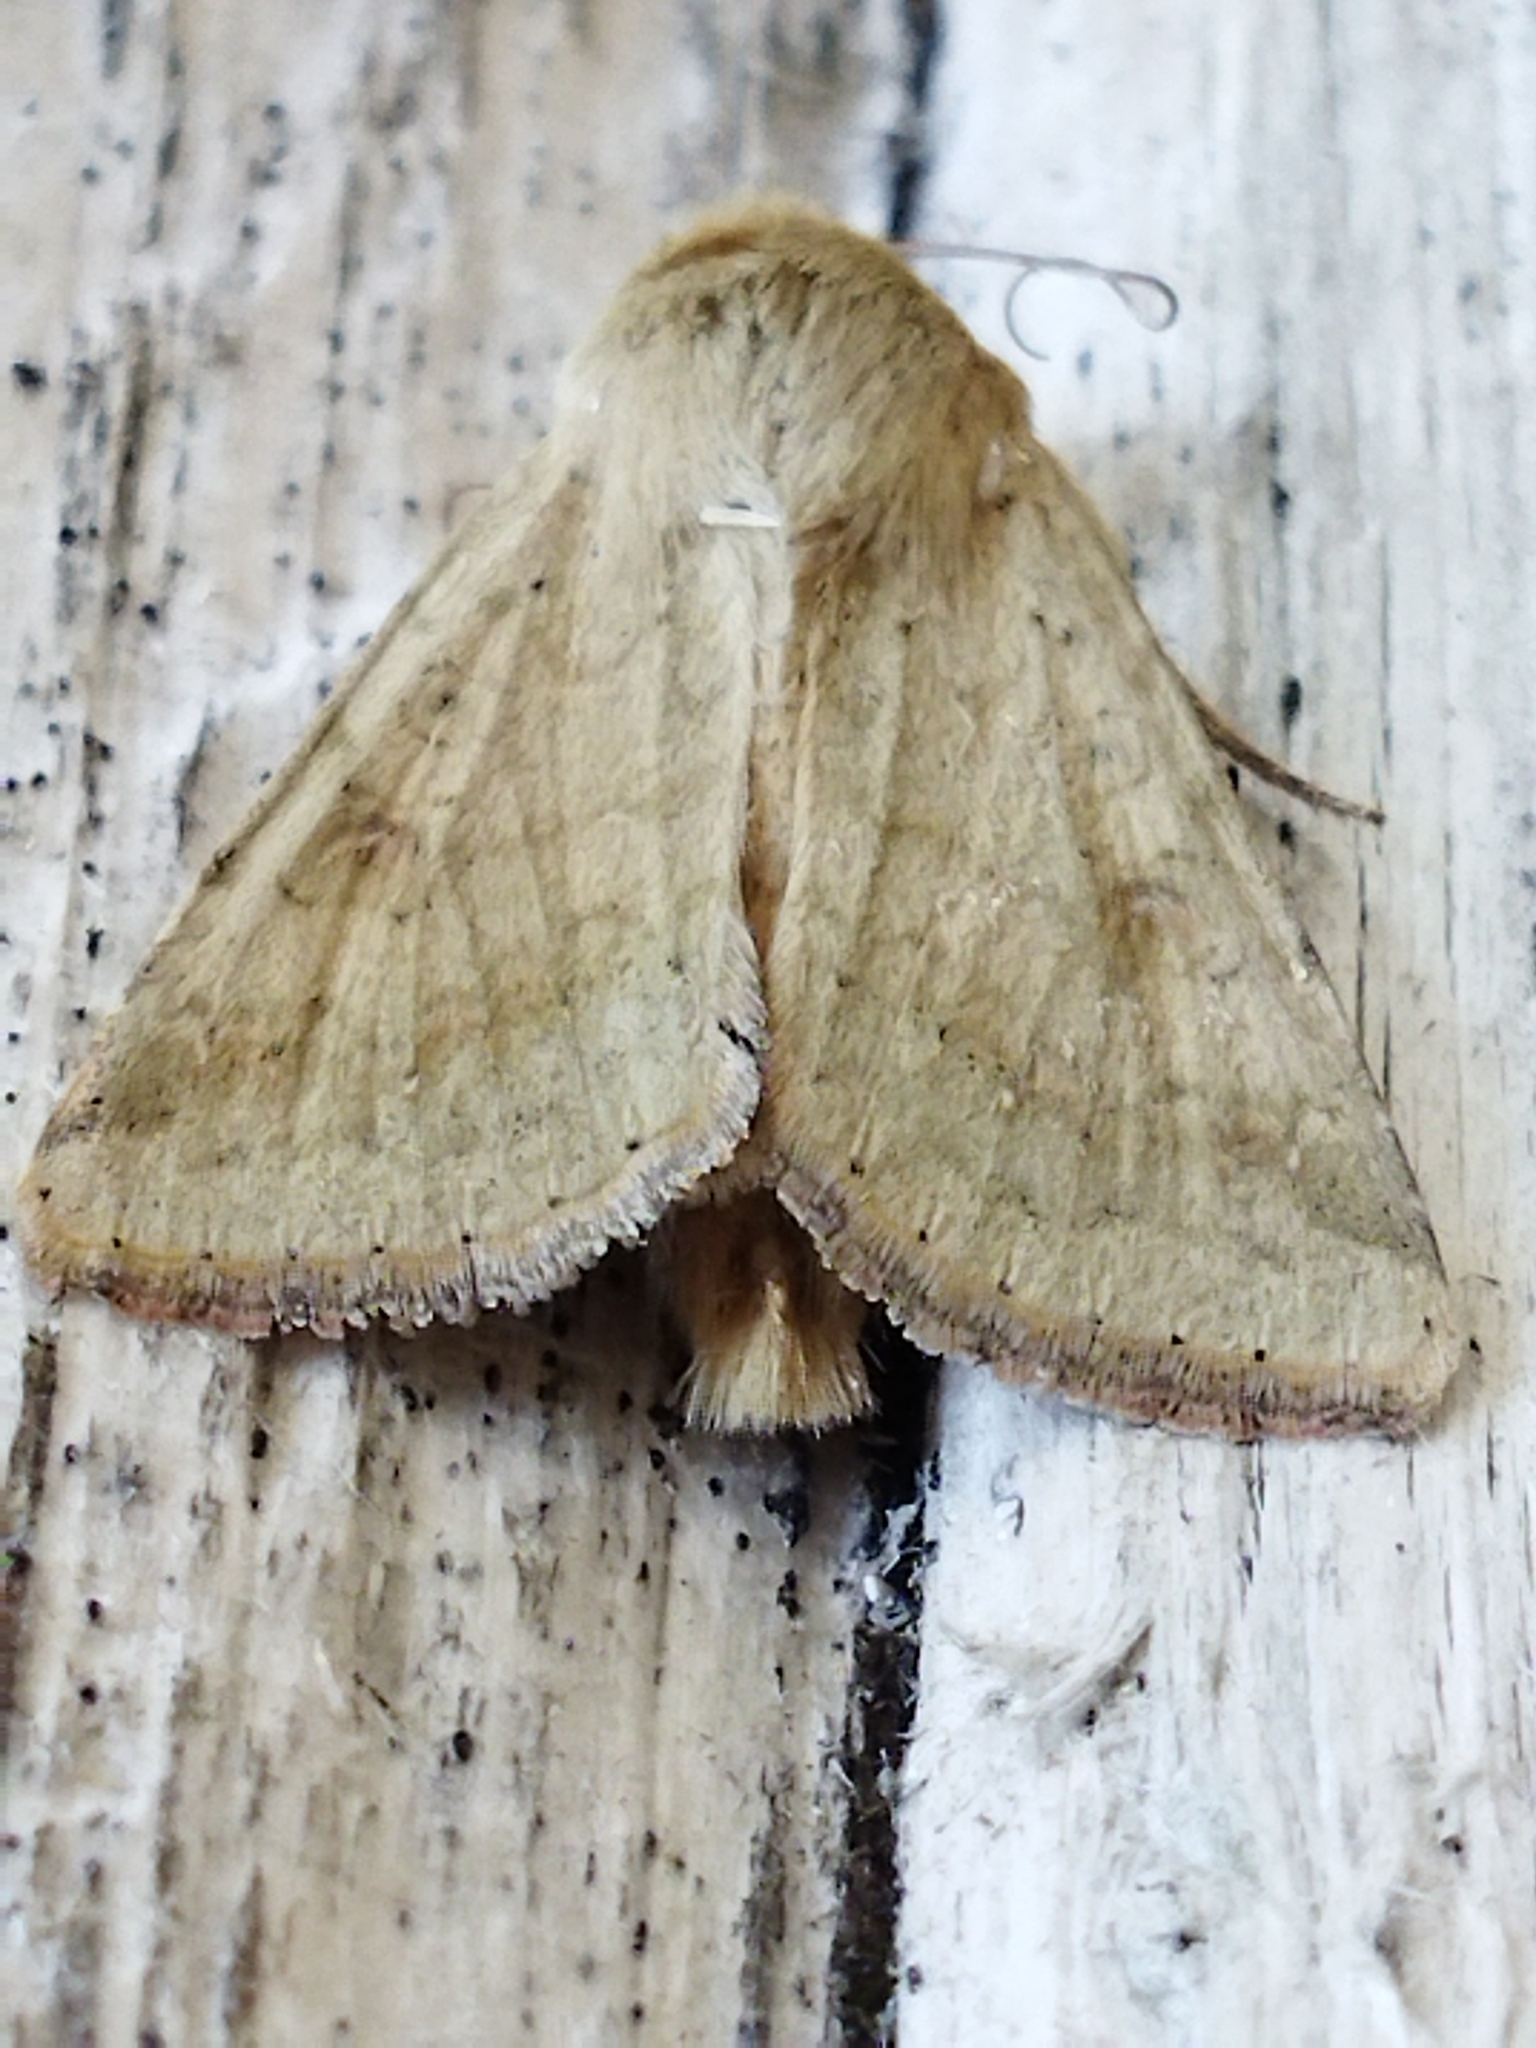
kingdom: Animalia
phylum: Arthropoda
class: Insecta
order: Lepidoptera
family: Noctuidae
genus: Helicoverpa
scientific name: Helicoverpa armigera
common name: Cotton bollworm
